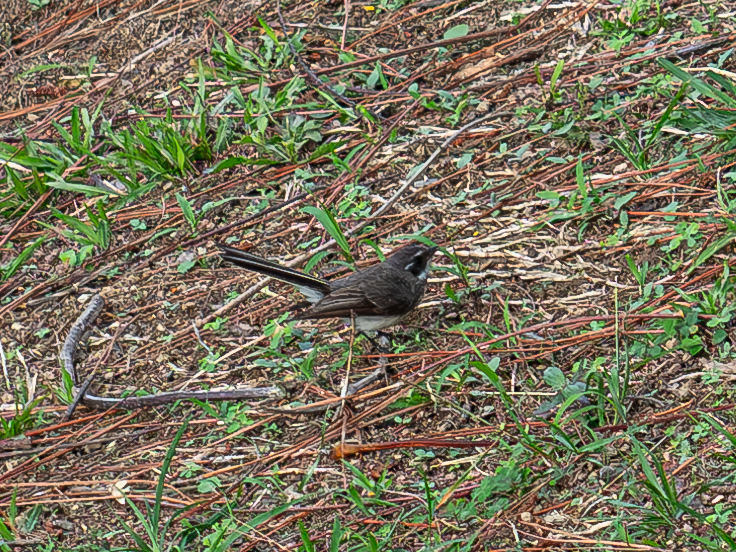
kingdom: Animalia
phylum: Chordata
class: Aves
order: Passeriformes
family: Rhipiduridae
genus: Rhipidura
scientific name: Rhipidura albiscapa
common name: Grey fantail
